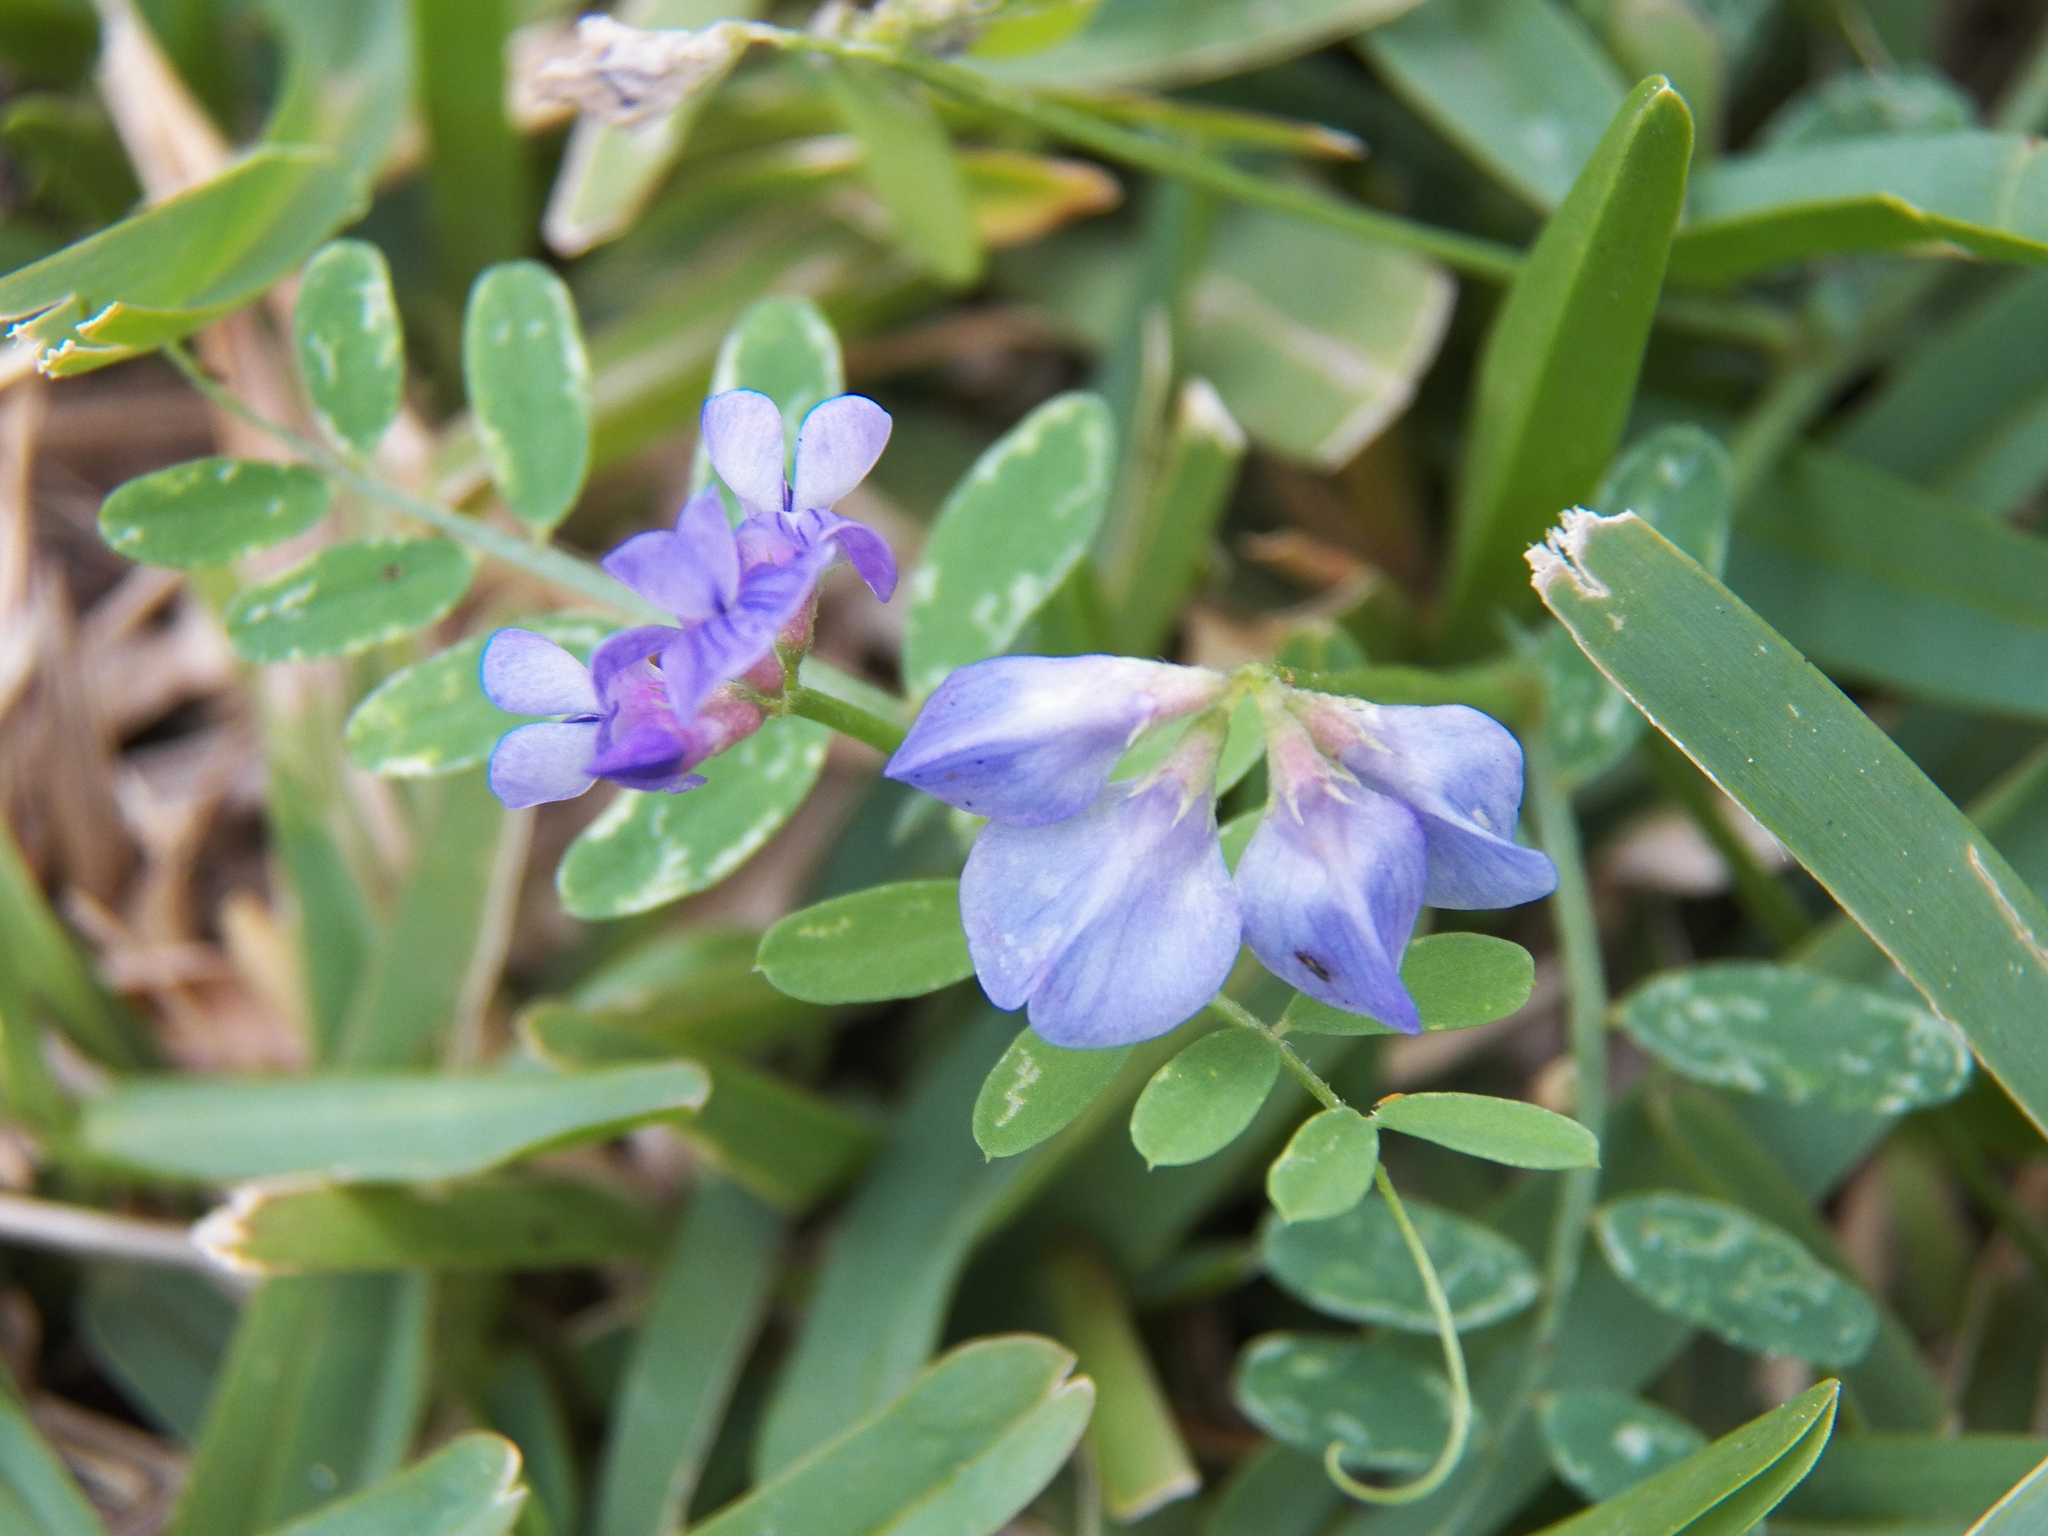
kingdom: Plantae
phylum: Tracheophyta
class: Magnoliopsida
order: Fabales
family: Fabaceae
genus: Vicia
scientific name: Vicia ludoviciana
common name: Louisiana vetch
